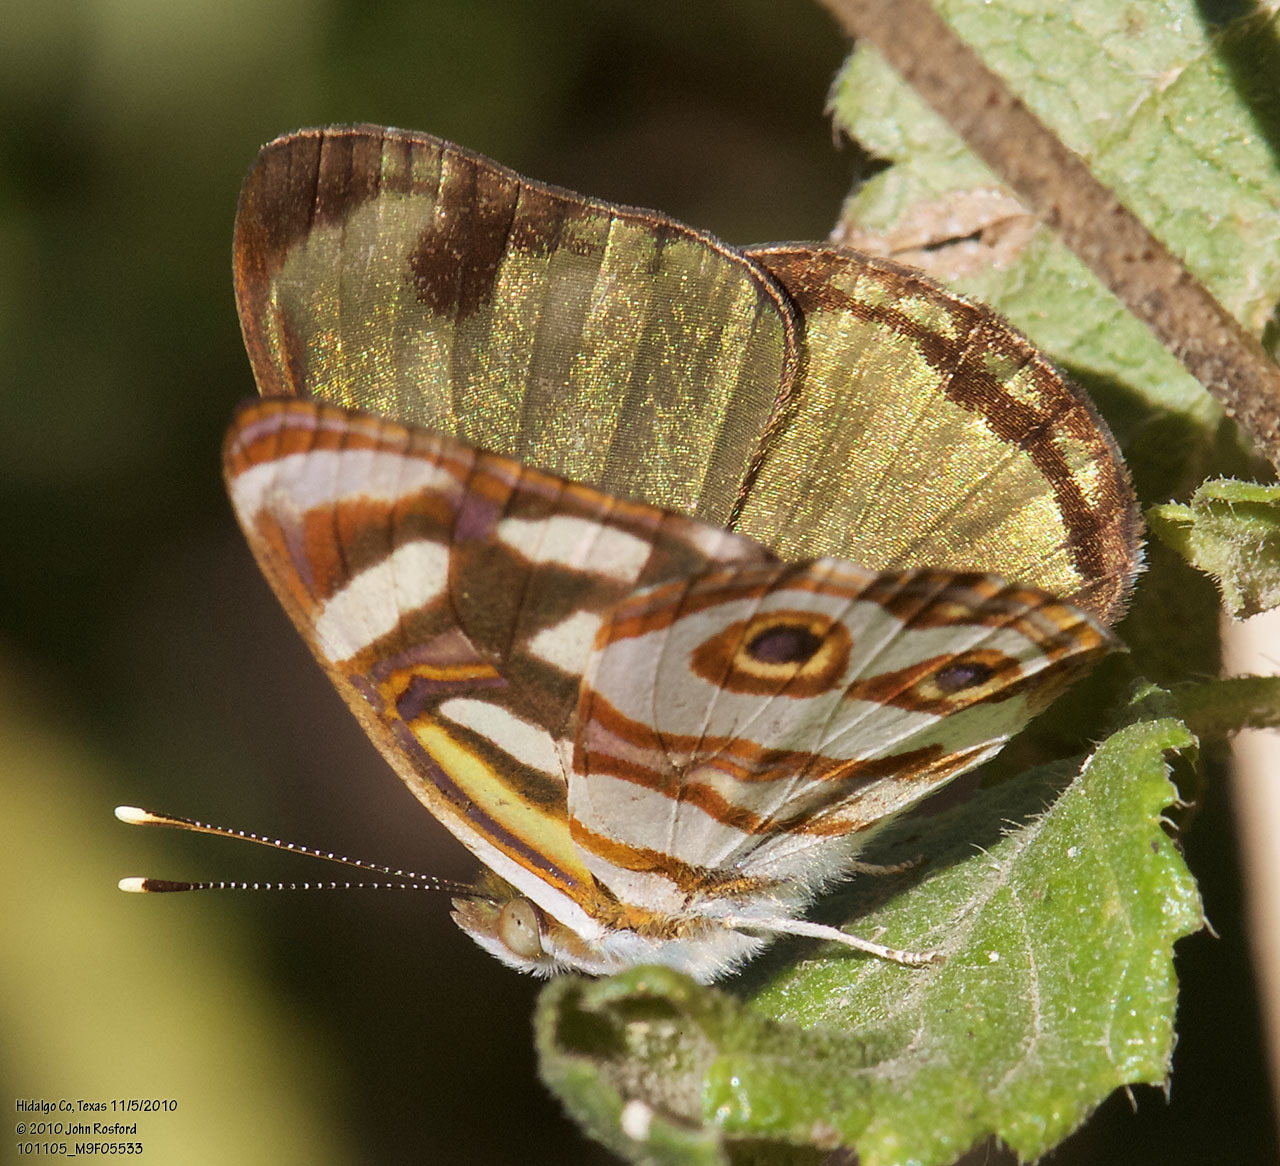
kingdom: Animalia
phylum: Arthropoda
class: Insecta
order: Lepidoptera
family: Nymphalidae
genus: Dynamine
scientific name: Dynamine dyonis
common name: Blue-eyed sailor
